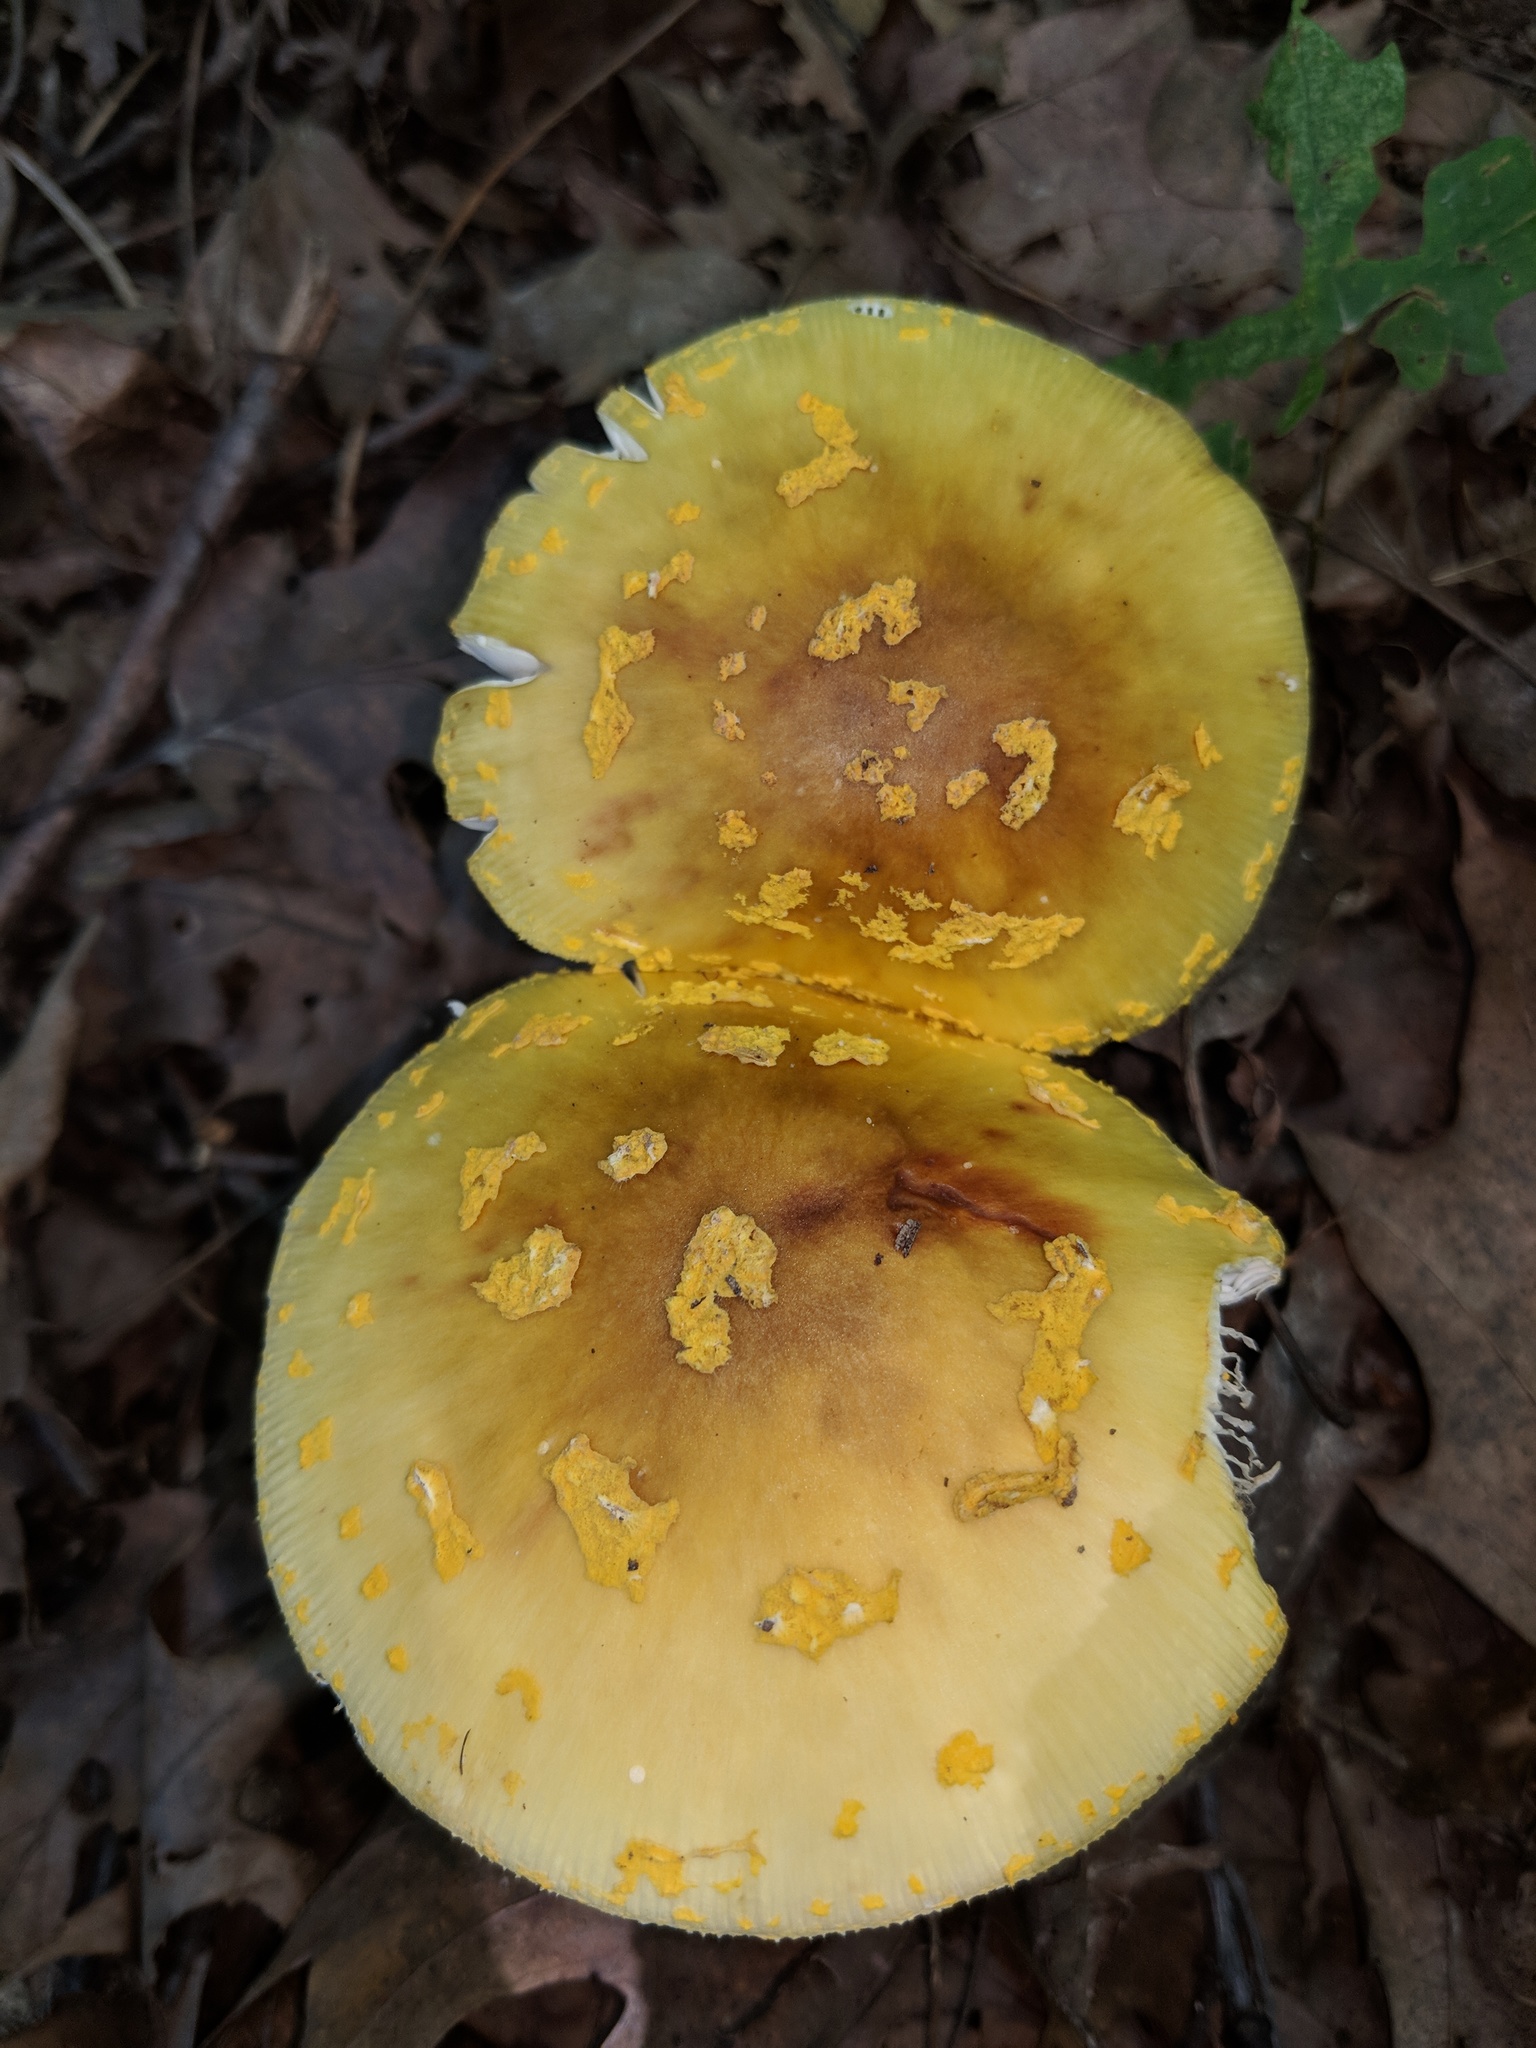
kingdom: Fungi
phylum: Basidiomycota
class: Agaricomycetes
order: Agaricales
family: Amanitaceae
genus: Amanita
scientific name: Amanita flavorubens
